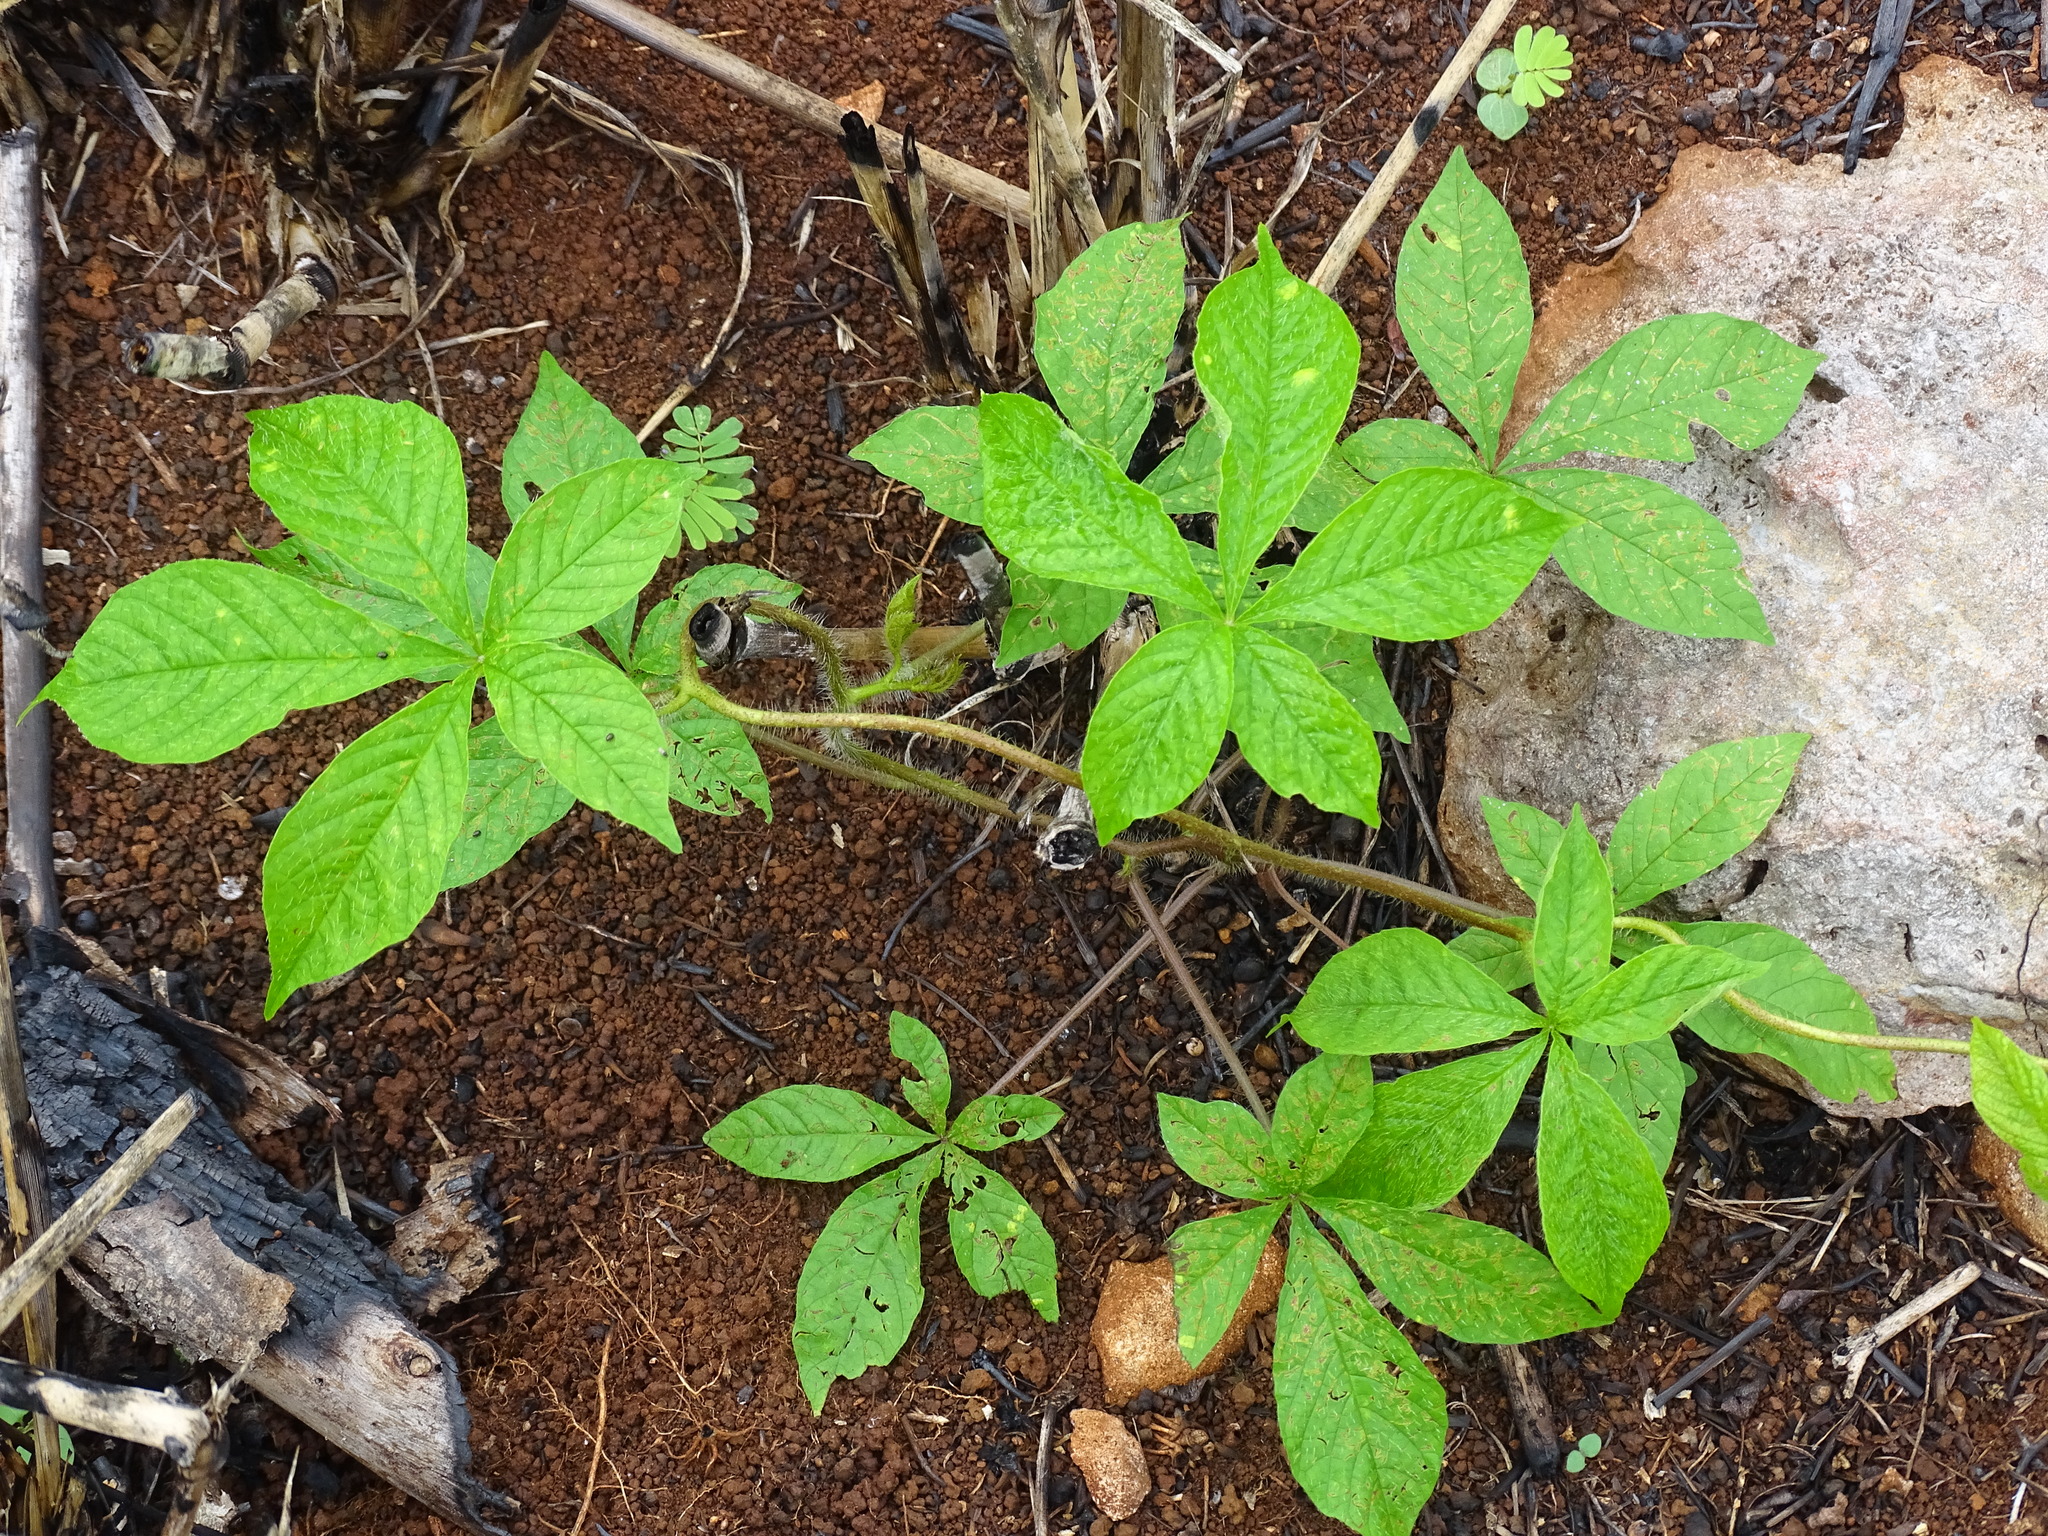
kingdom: Plantae
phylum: Tracheophyta
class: Magnoliopsida
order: Solanales
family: Convolvulaceae
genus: Distimake
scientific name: Distimake aegyptius
